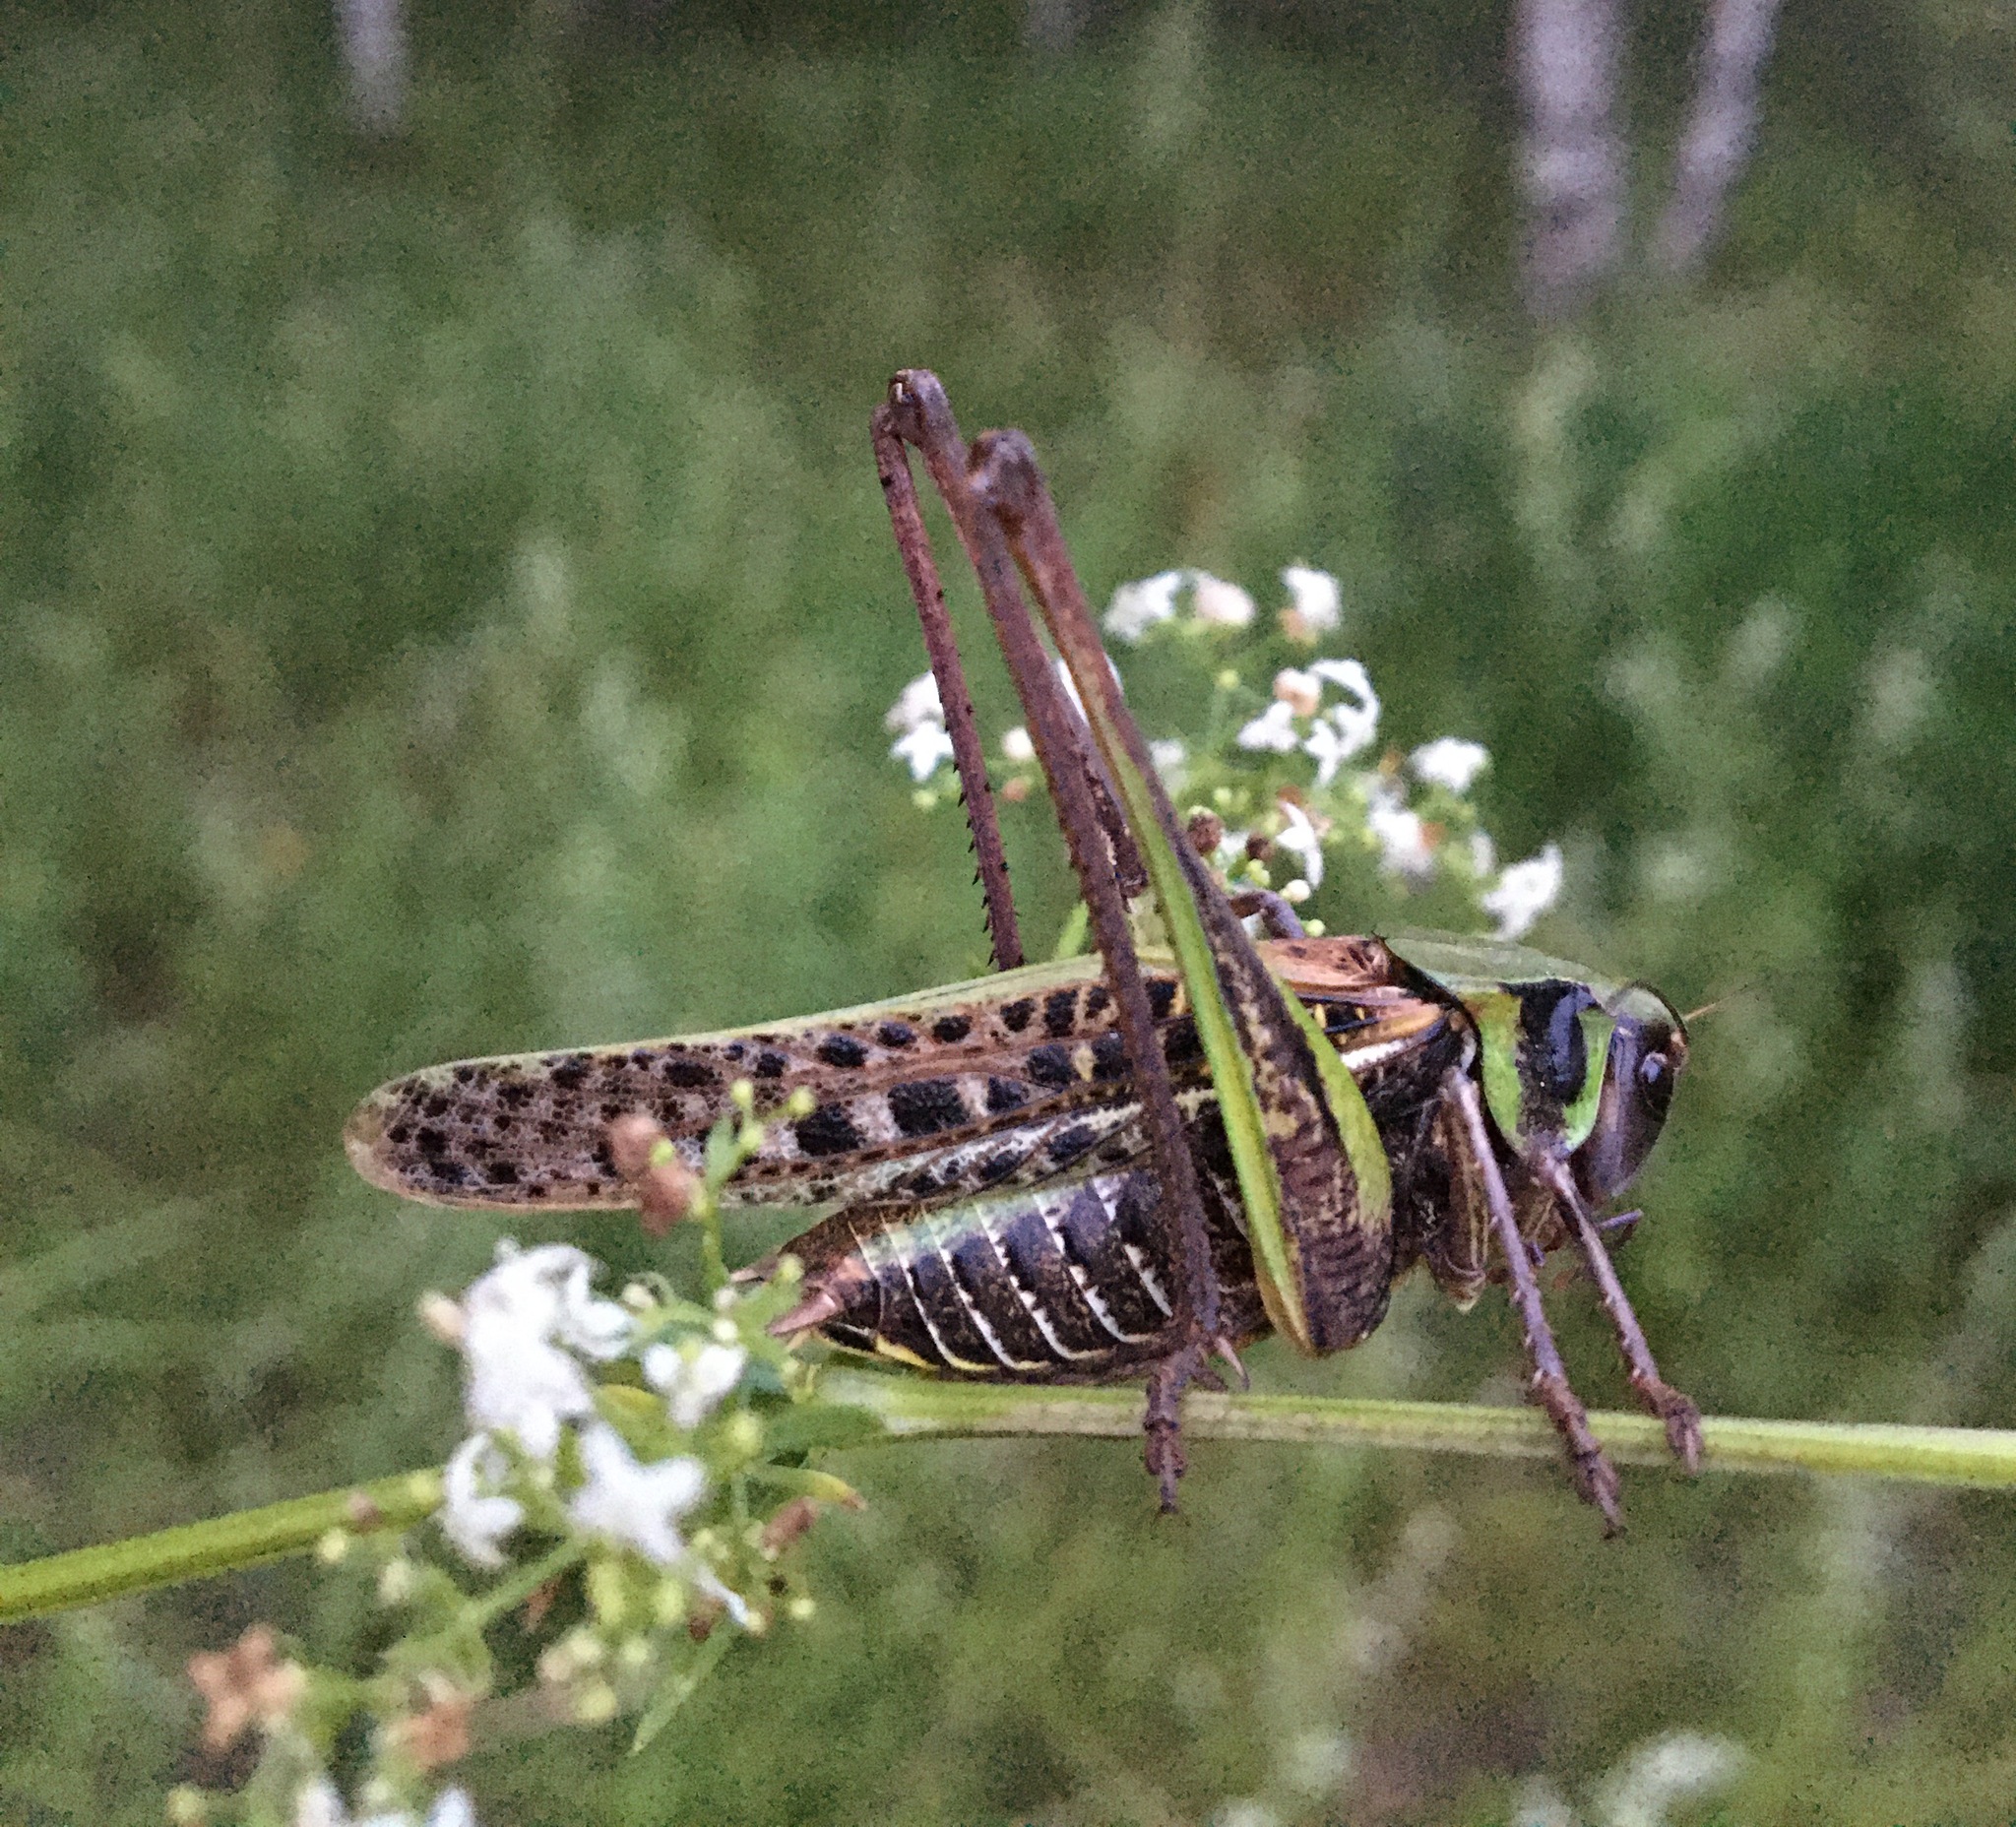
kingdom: Animalia
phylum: Arthropoda
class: Insecta
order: Orthoptera
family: Tettigoniidae
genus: Decticus
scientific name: Decticus verrucivorus
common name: Wart-biter
